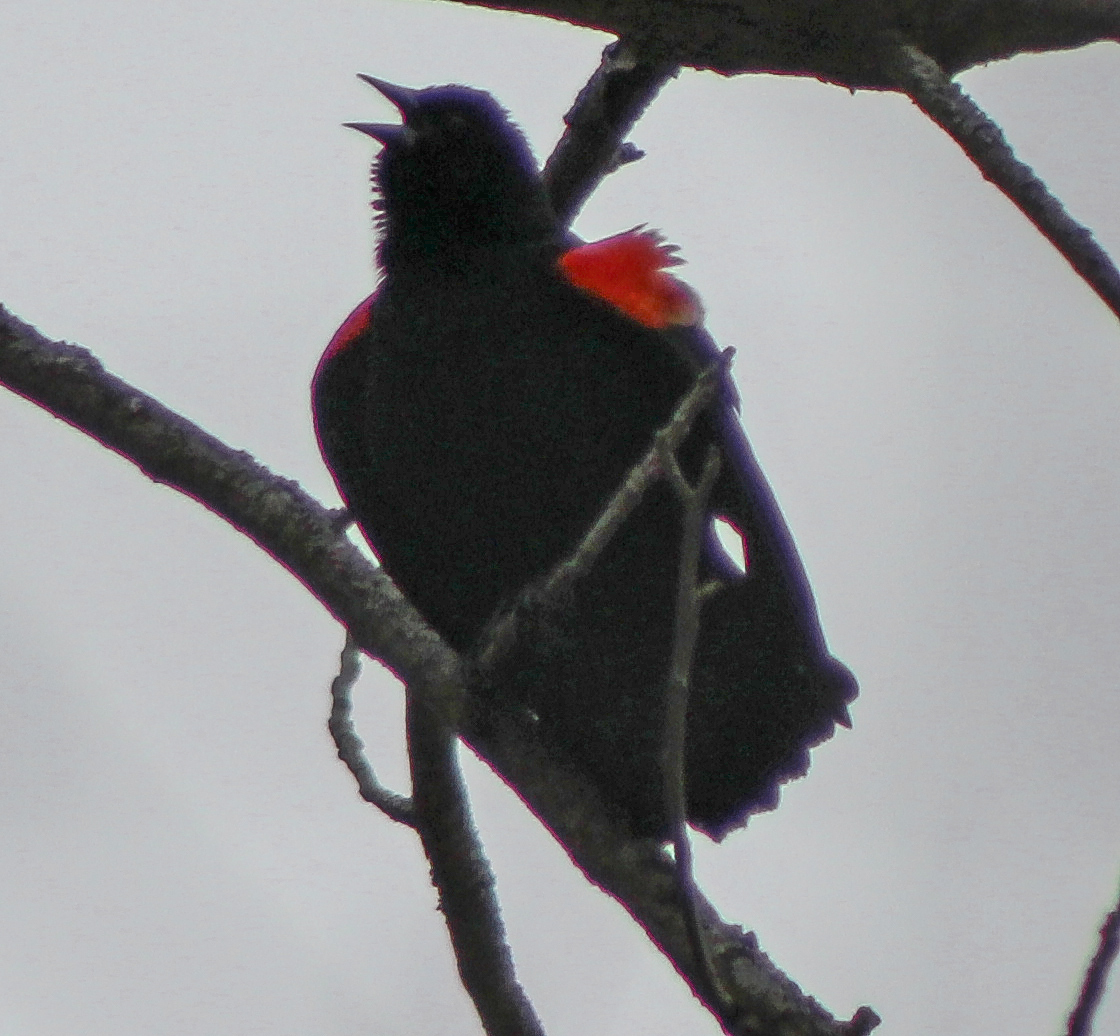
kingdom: Animalia
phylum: Chordata
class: Aves
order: Passeriformes
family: Icteridae
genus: Agelaius
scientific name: Agelaius phoeniceus
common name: Red-winged blackbird
